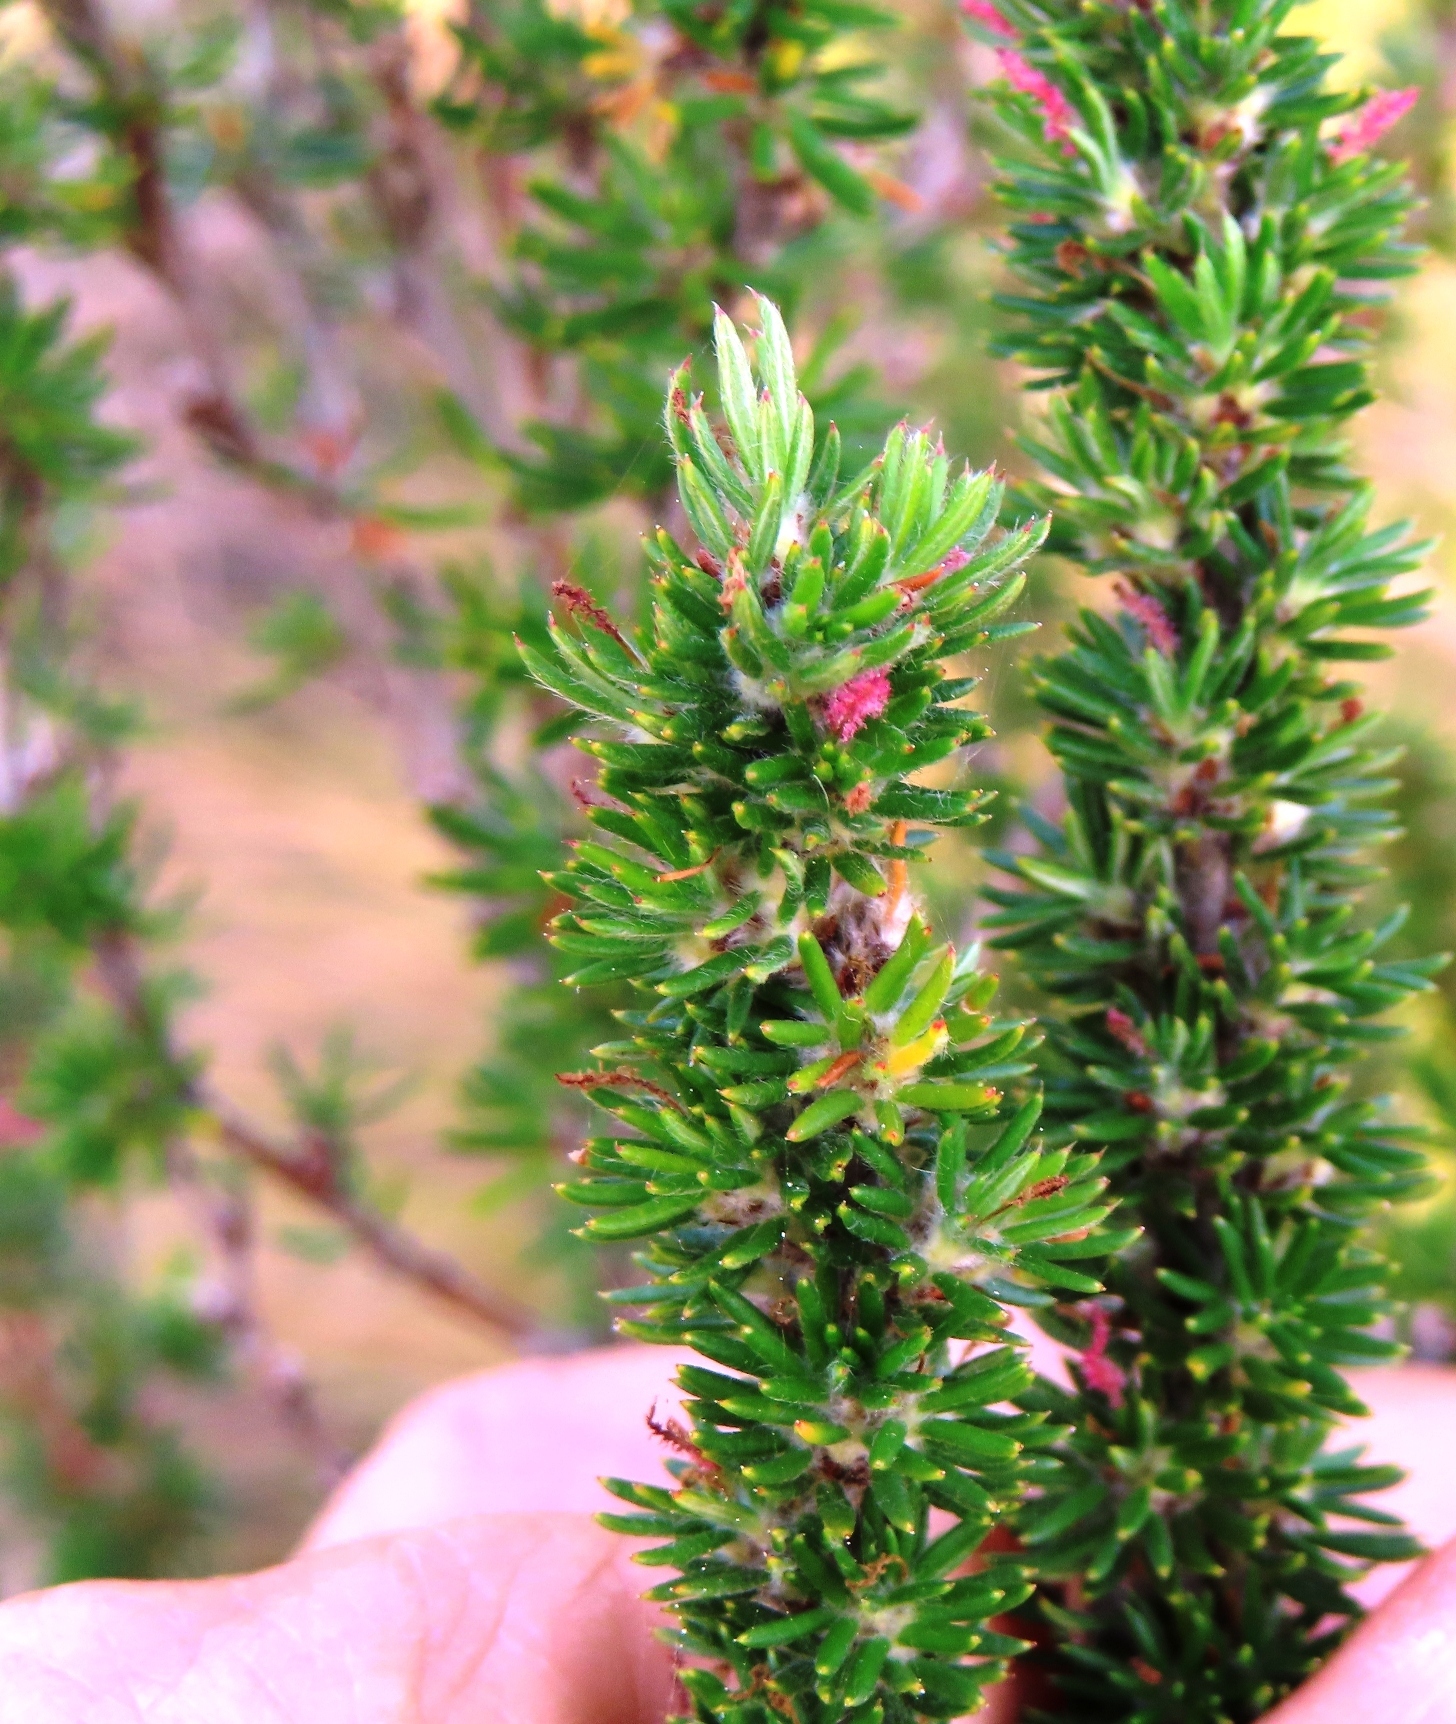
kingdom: Plantae
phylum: Tracheophyta
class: Magnoliopsida
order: Rosales
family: Rosaceae
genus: Cliffortia
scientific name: Cliffortia stricta
